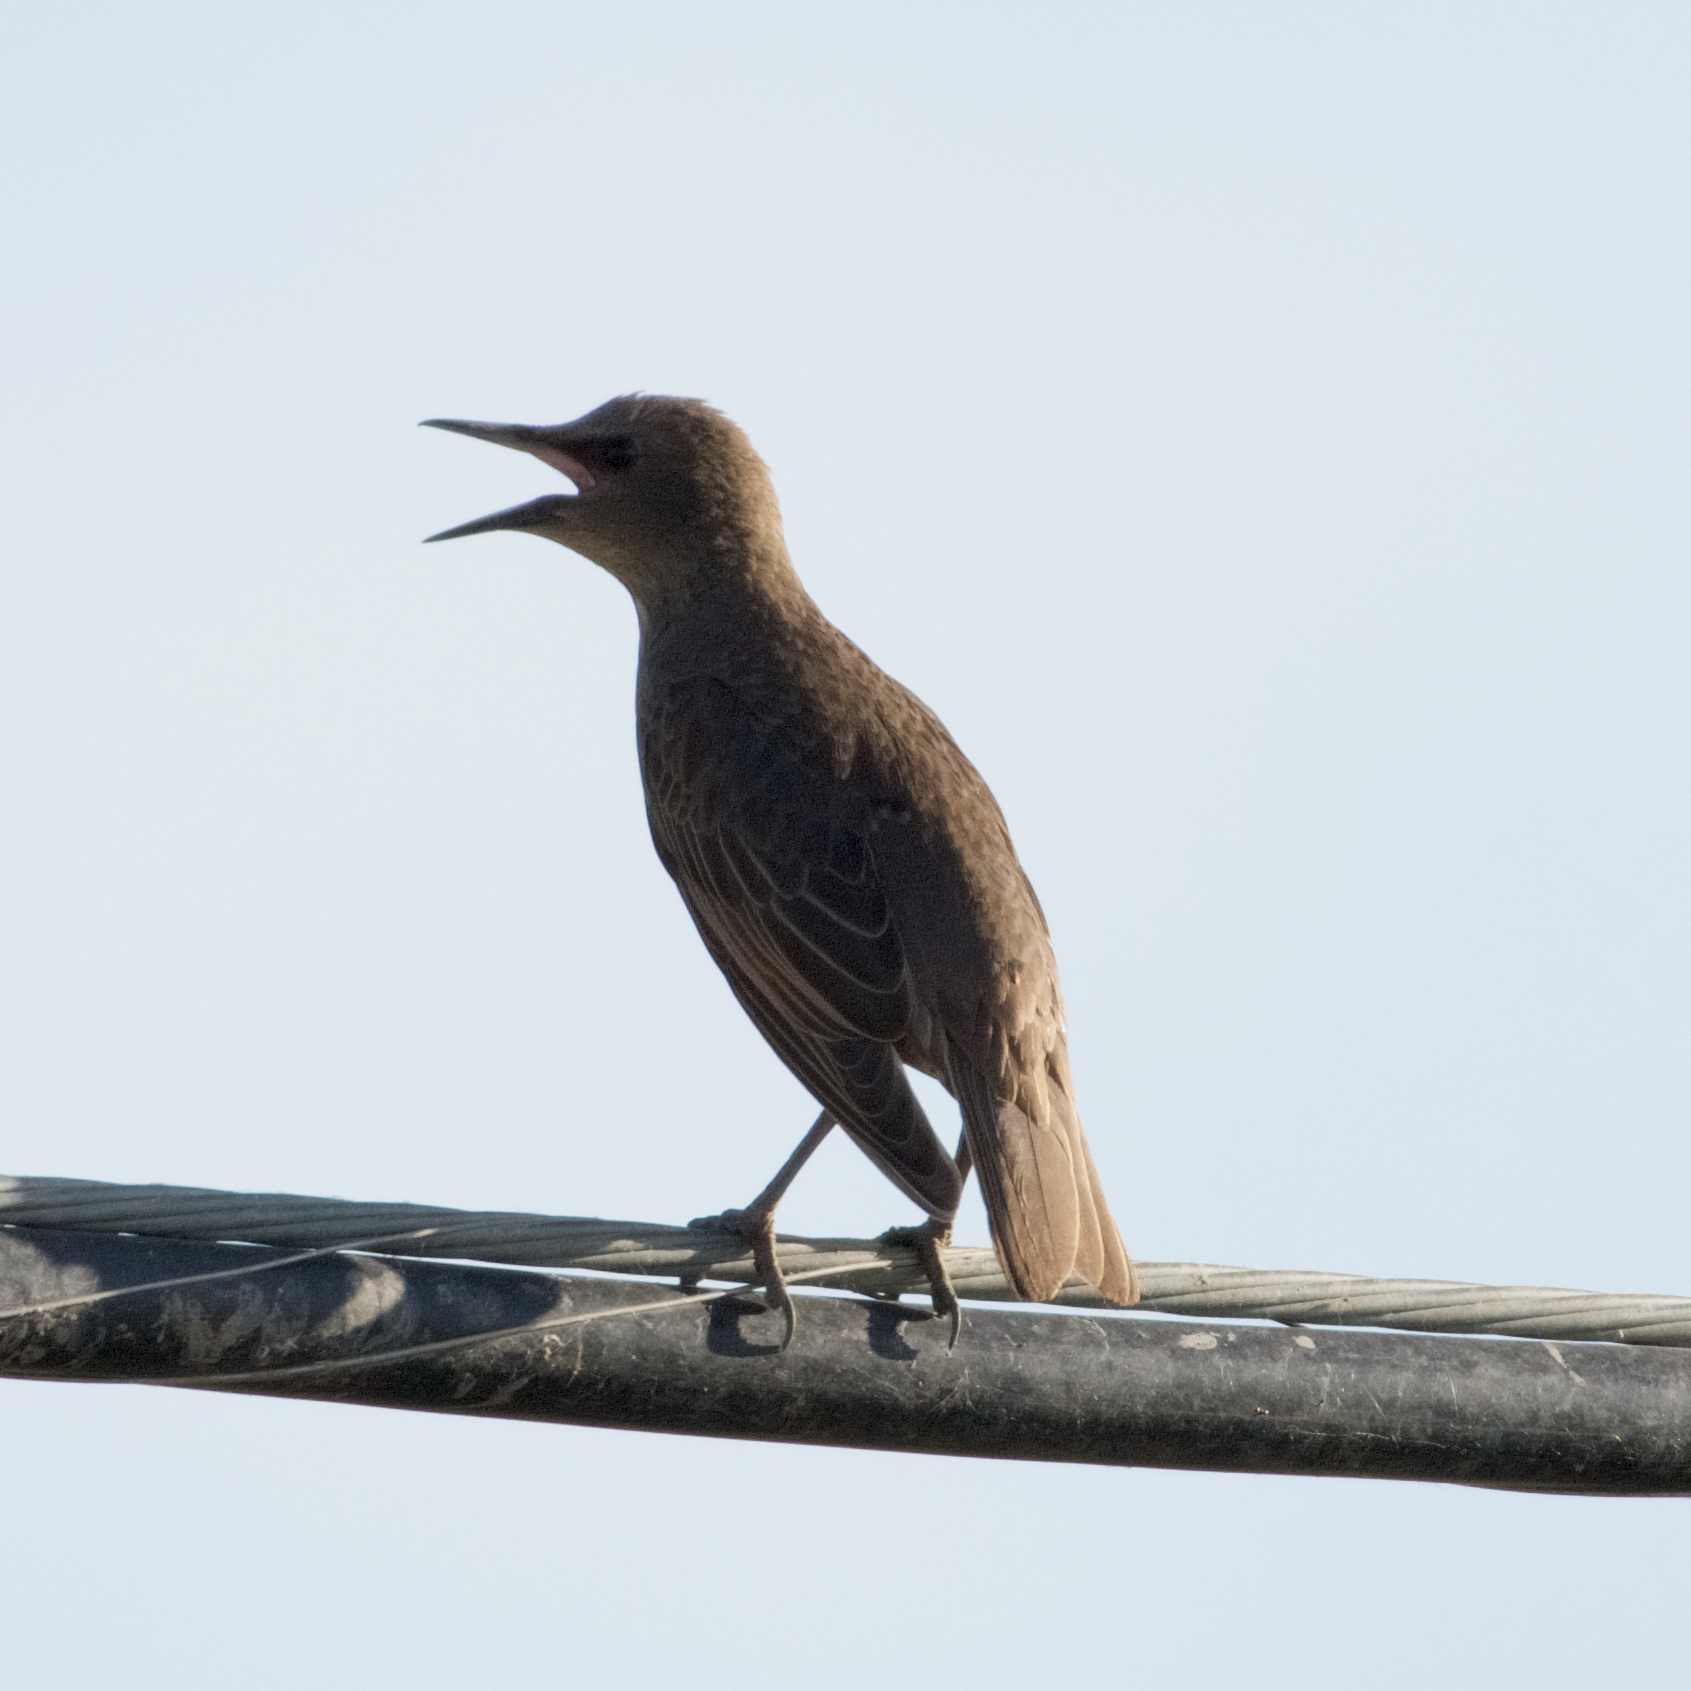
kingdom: Animalia
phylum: Chordata
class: Aves
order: Passeriformes
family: Sturnidae
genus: Sturnus
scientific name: Sturnus vulgaris
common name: Common starling
